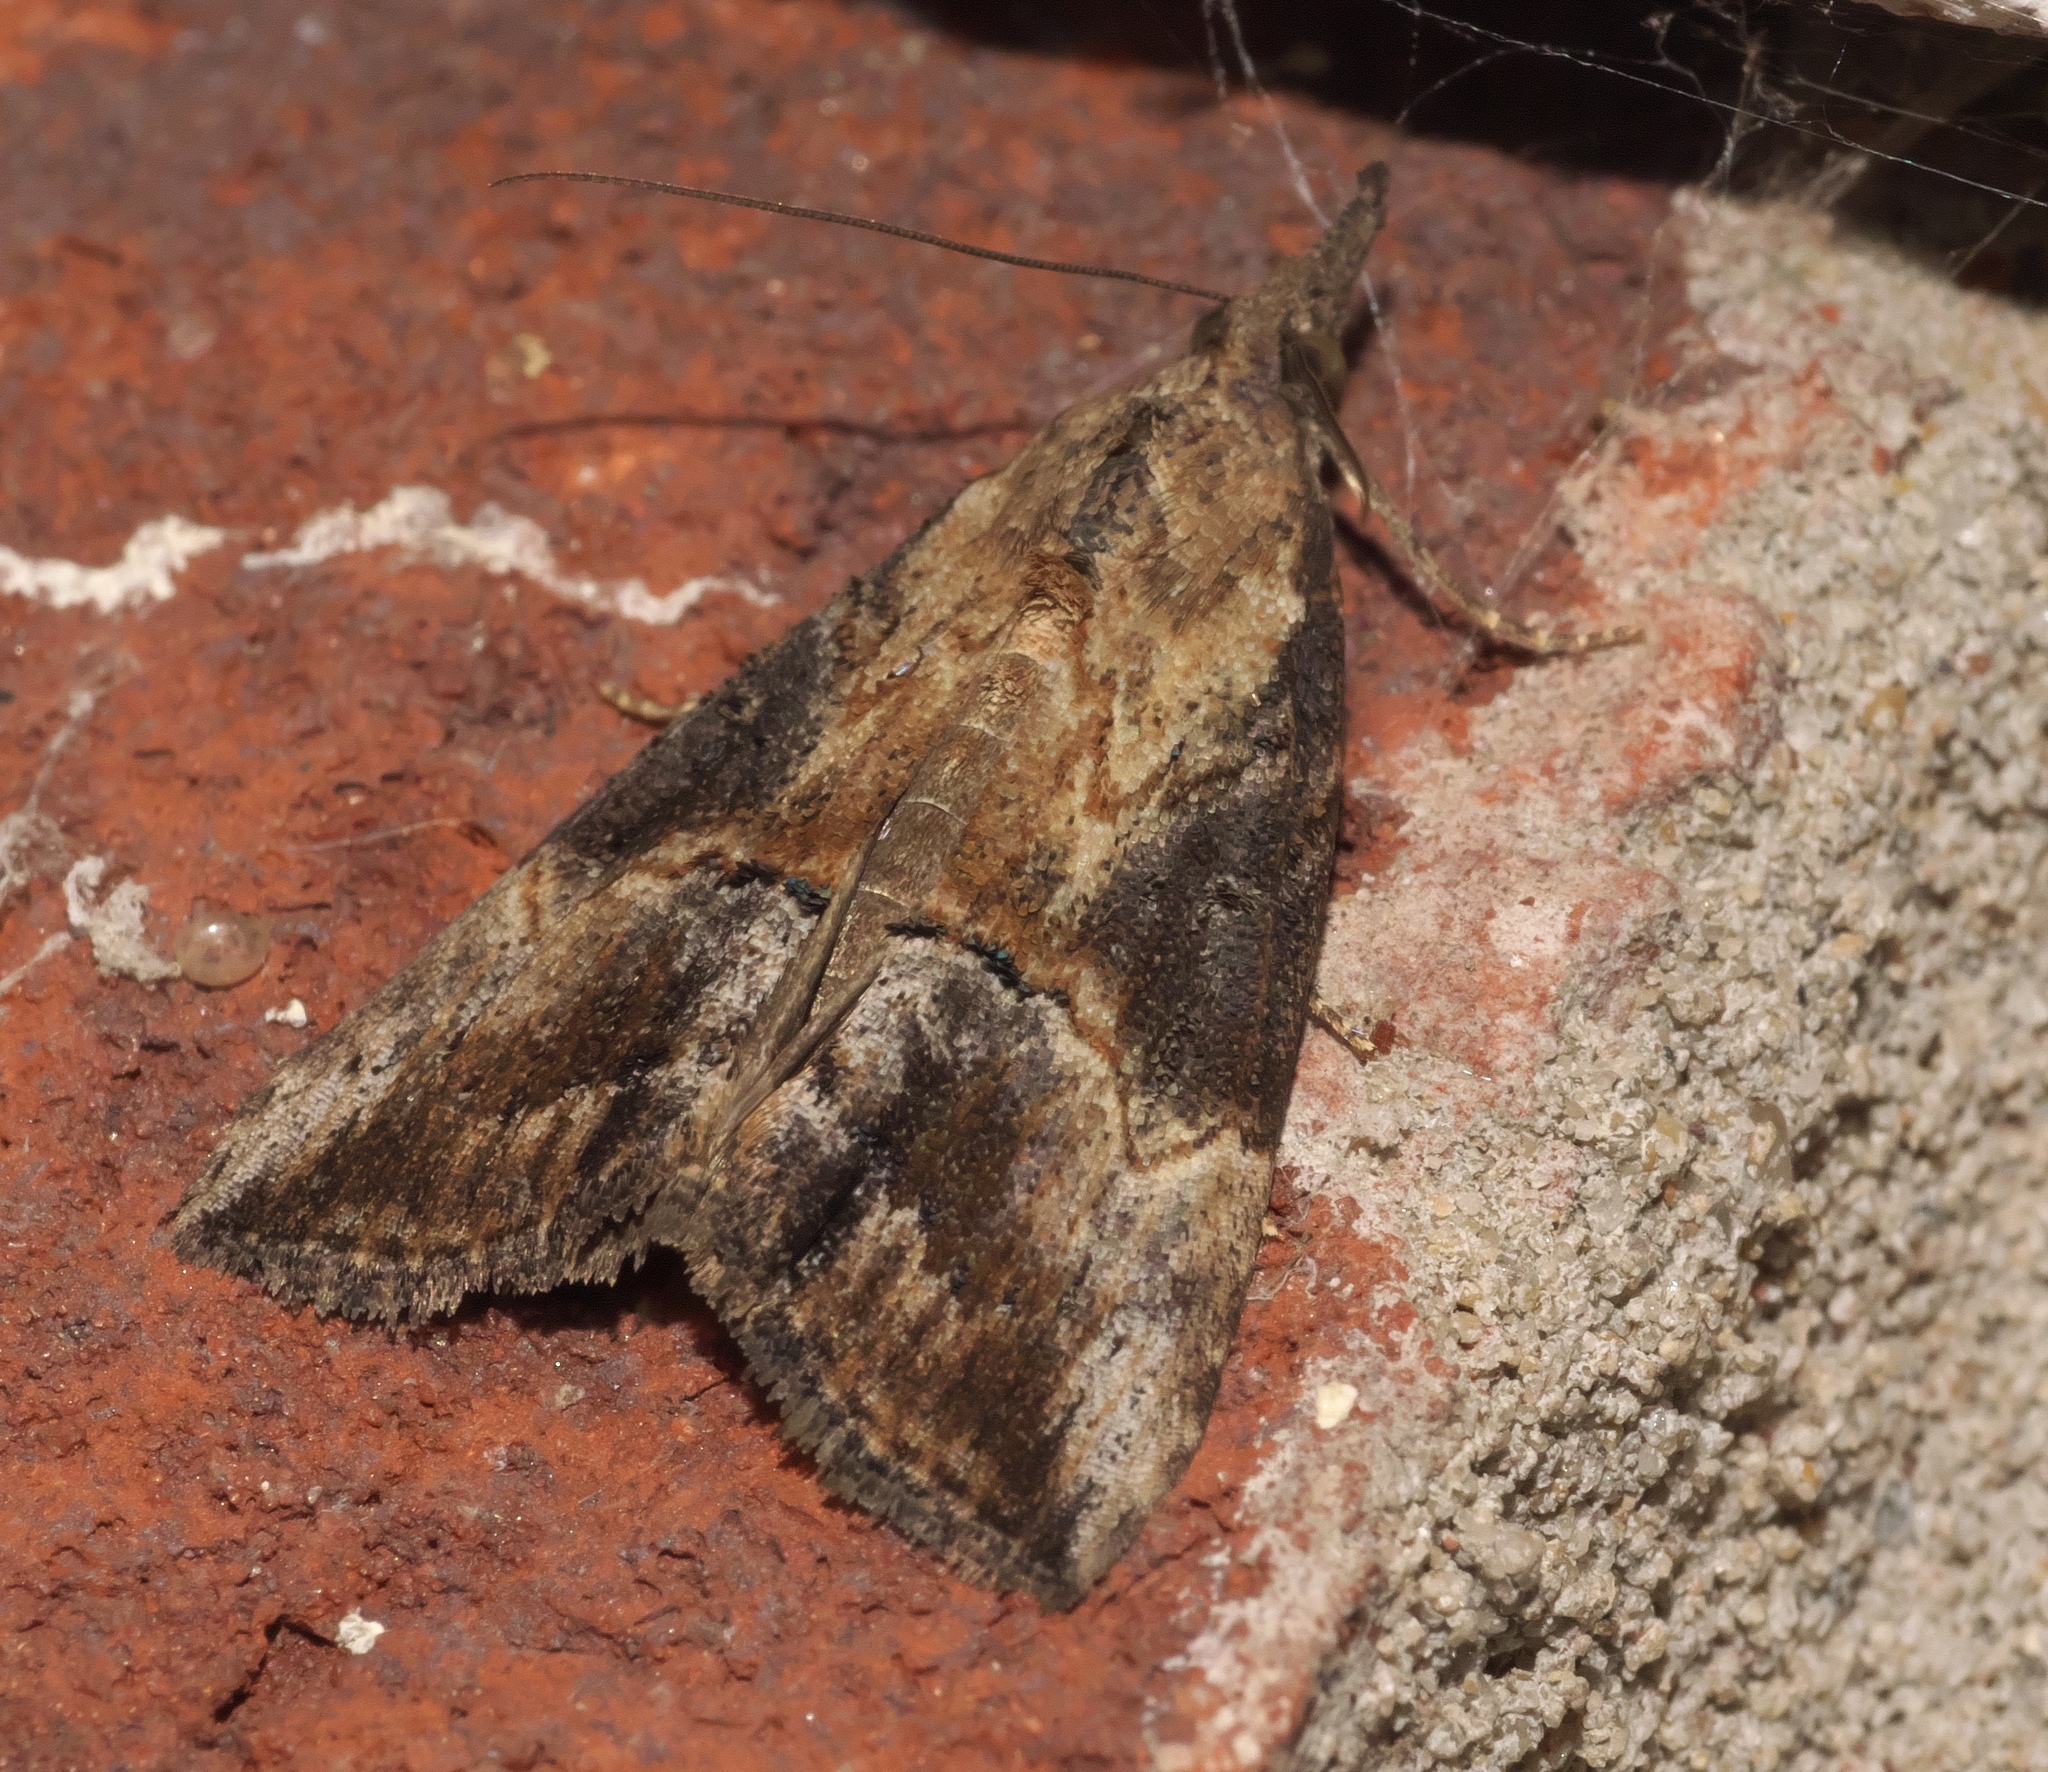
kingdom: Animalia
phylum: Arthropoda
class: Insecta
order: Lepidoptera
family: Erebidae
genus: Hypena
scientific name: Hypena scabra
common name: Green cloverworm
